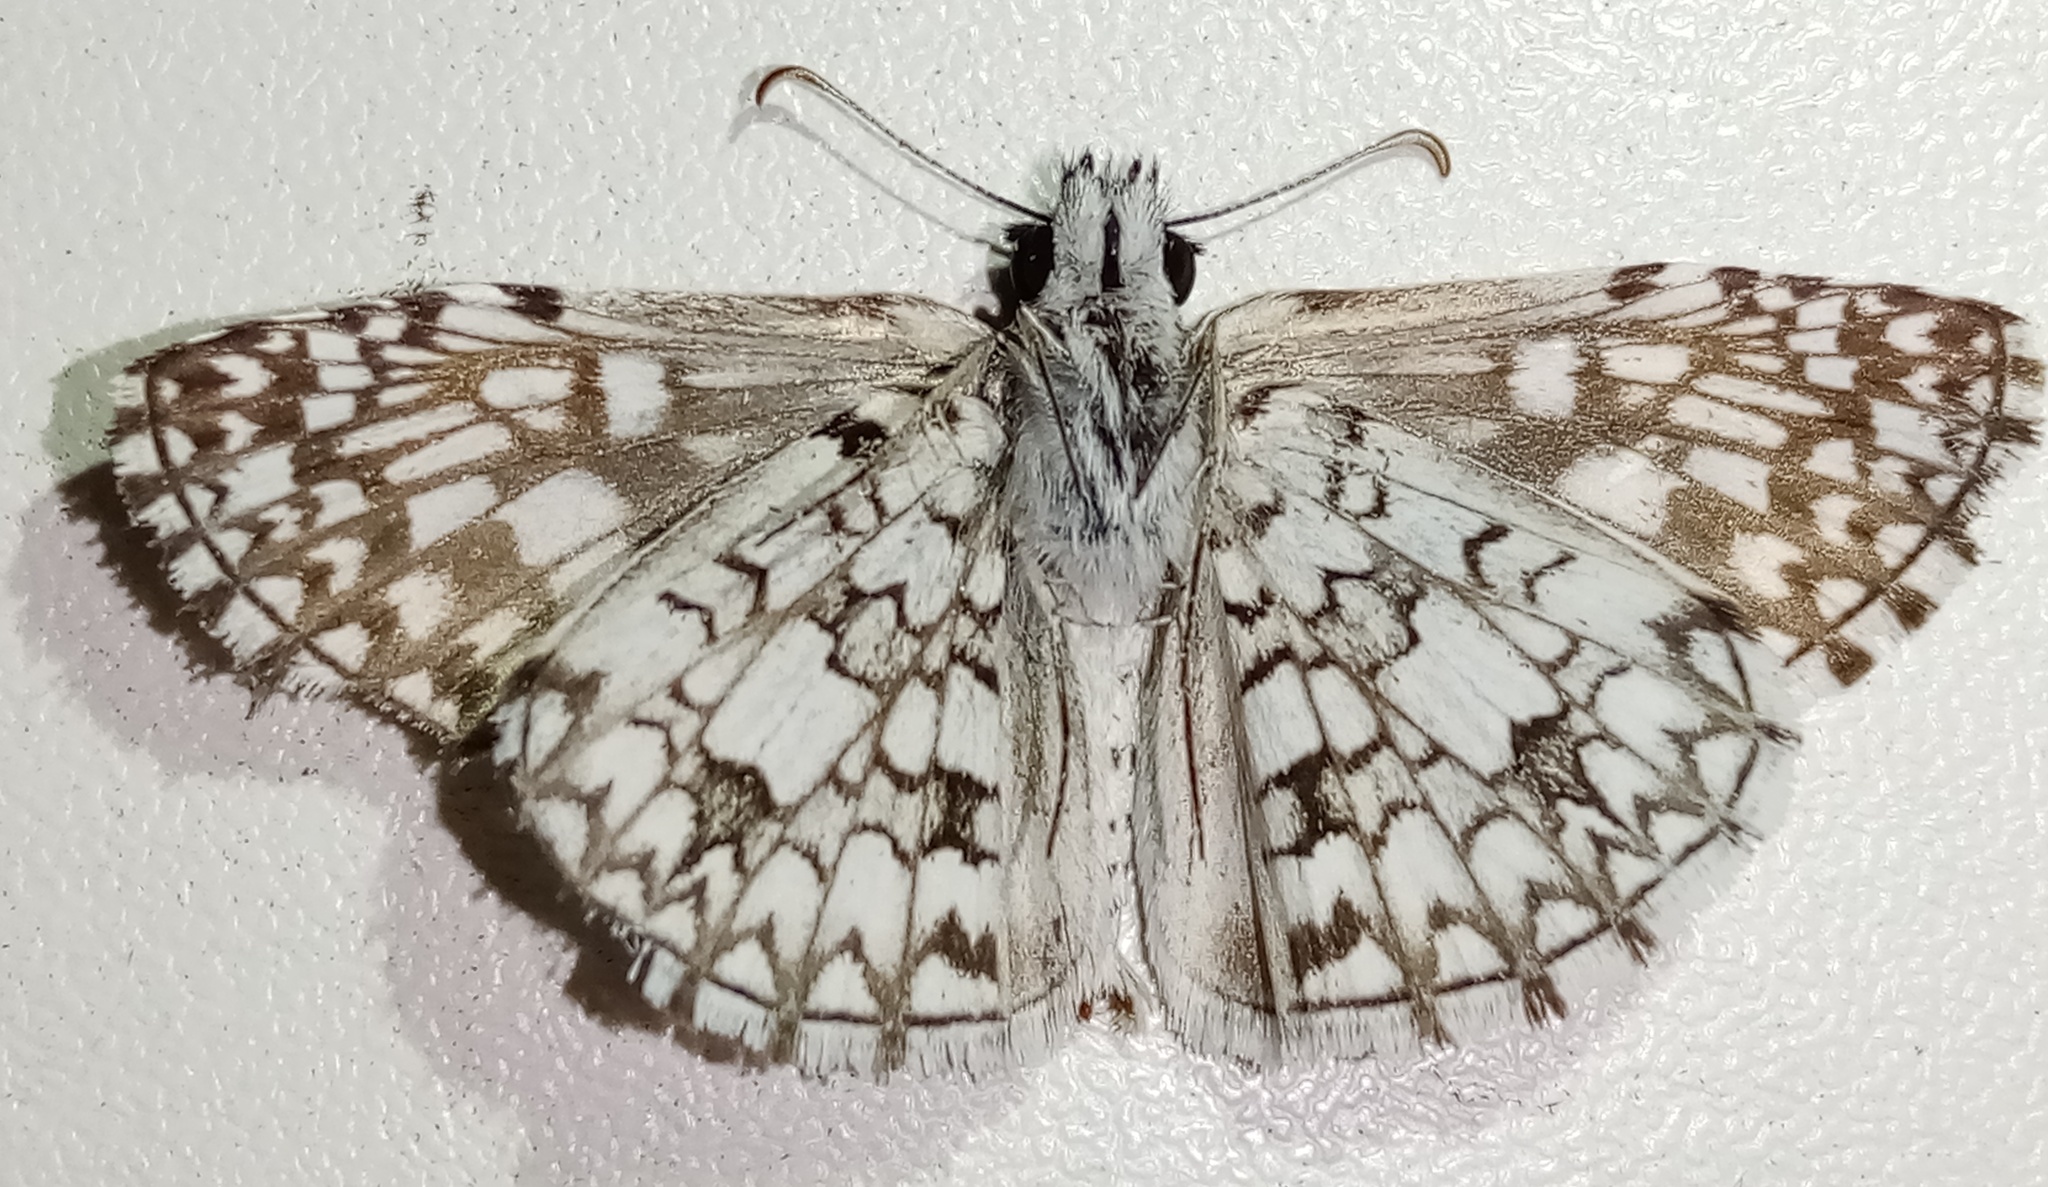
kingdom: Animalia
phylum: Arthropoda
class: Insecta
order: Lepidoptera
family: Hesperiidae
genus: Pyrgus
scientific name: Pyrgus oileus
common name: Tropical checkered-skipper
